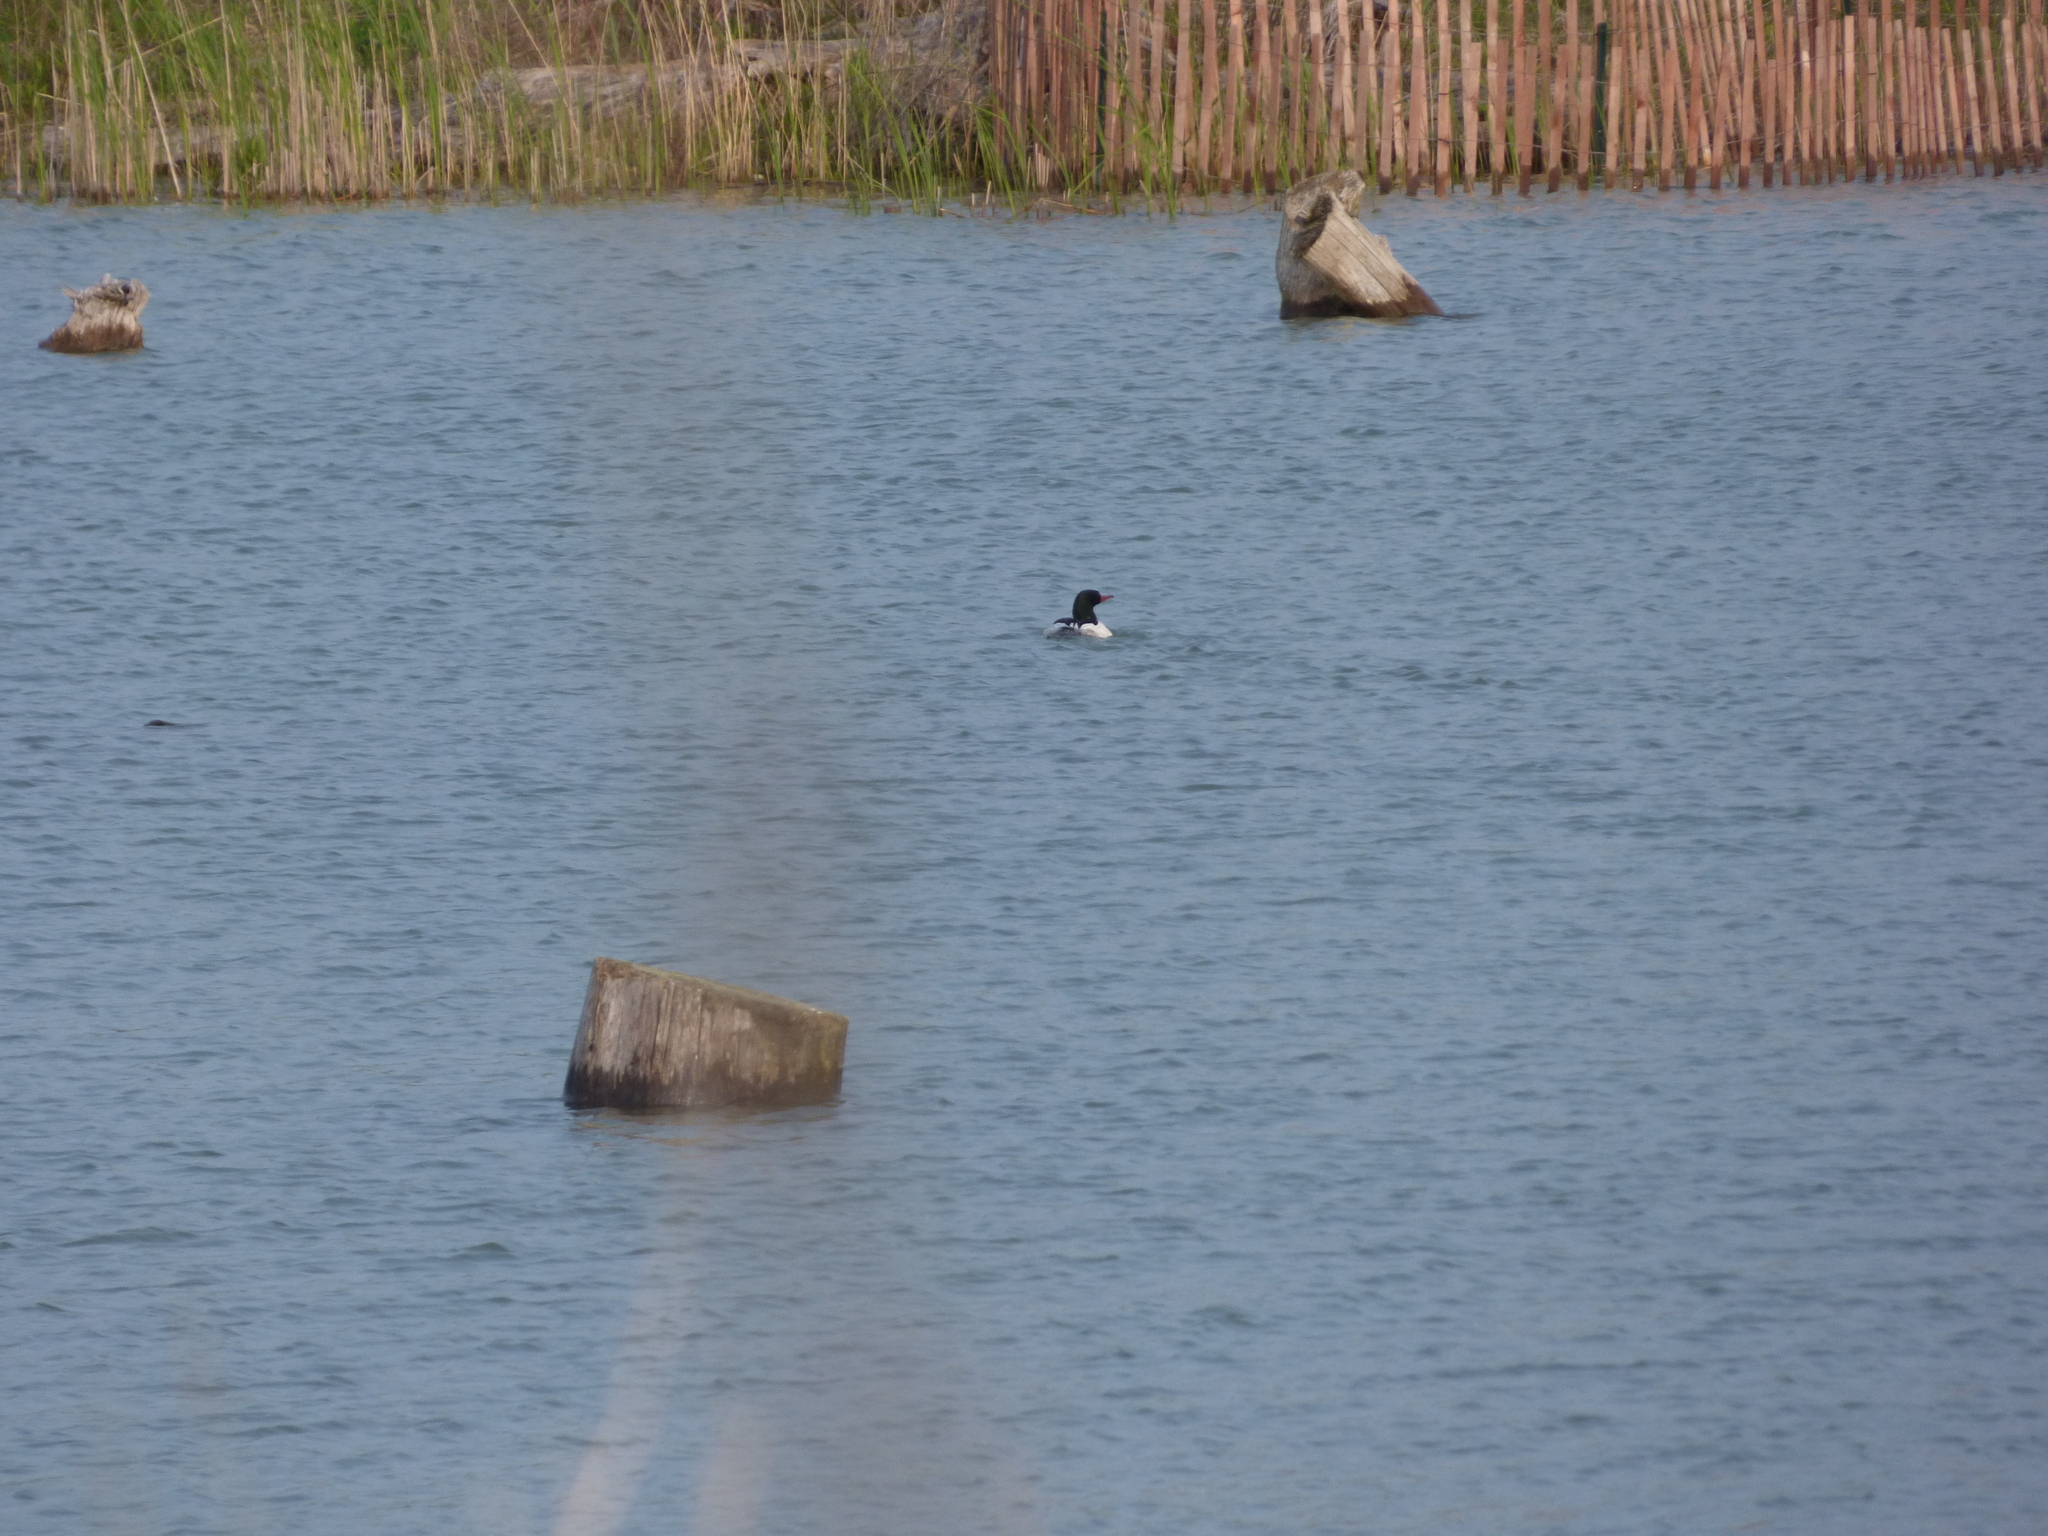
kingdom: Animalia
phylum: Chordata
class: Aves
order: Anseriformes
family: Anatidae
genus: Mergus
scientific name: Mergus merganser
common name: Common merganser
